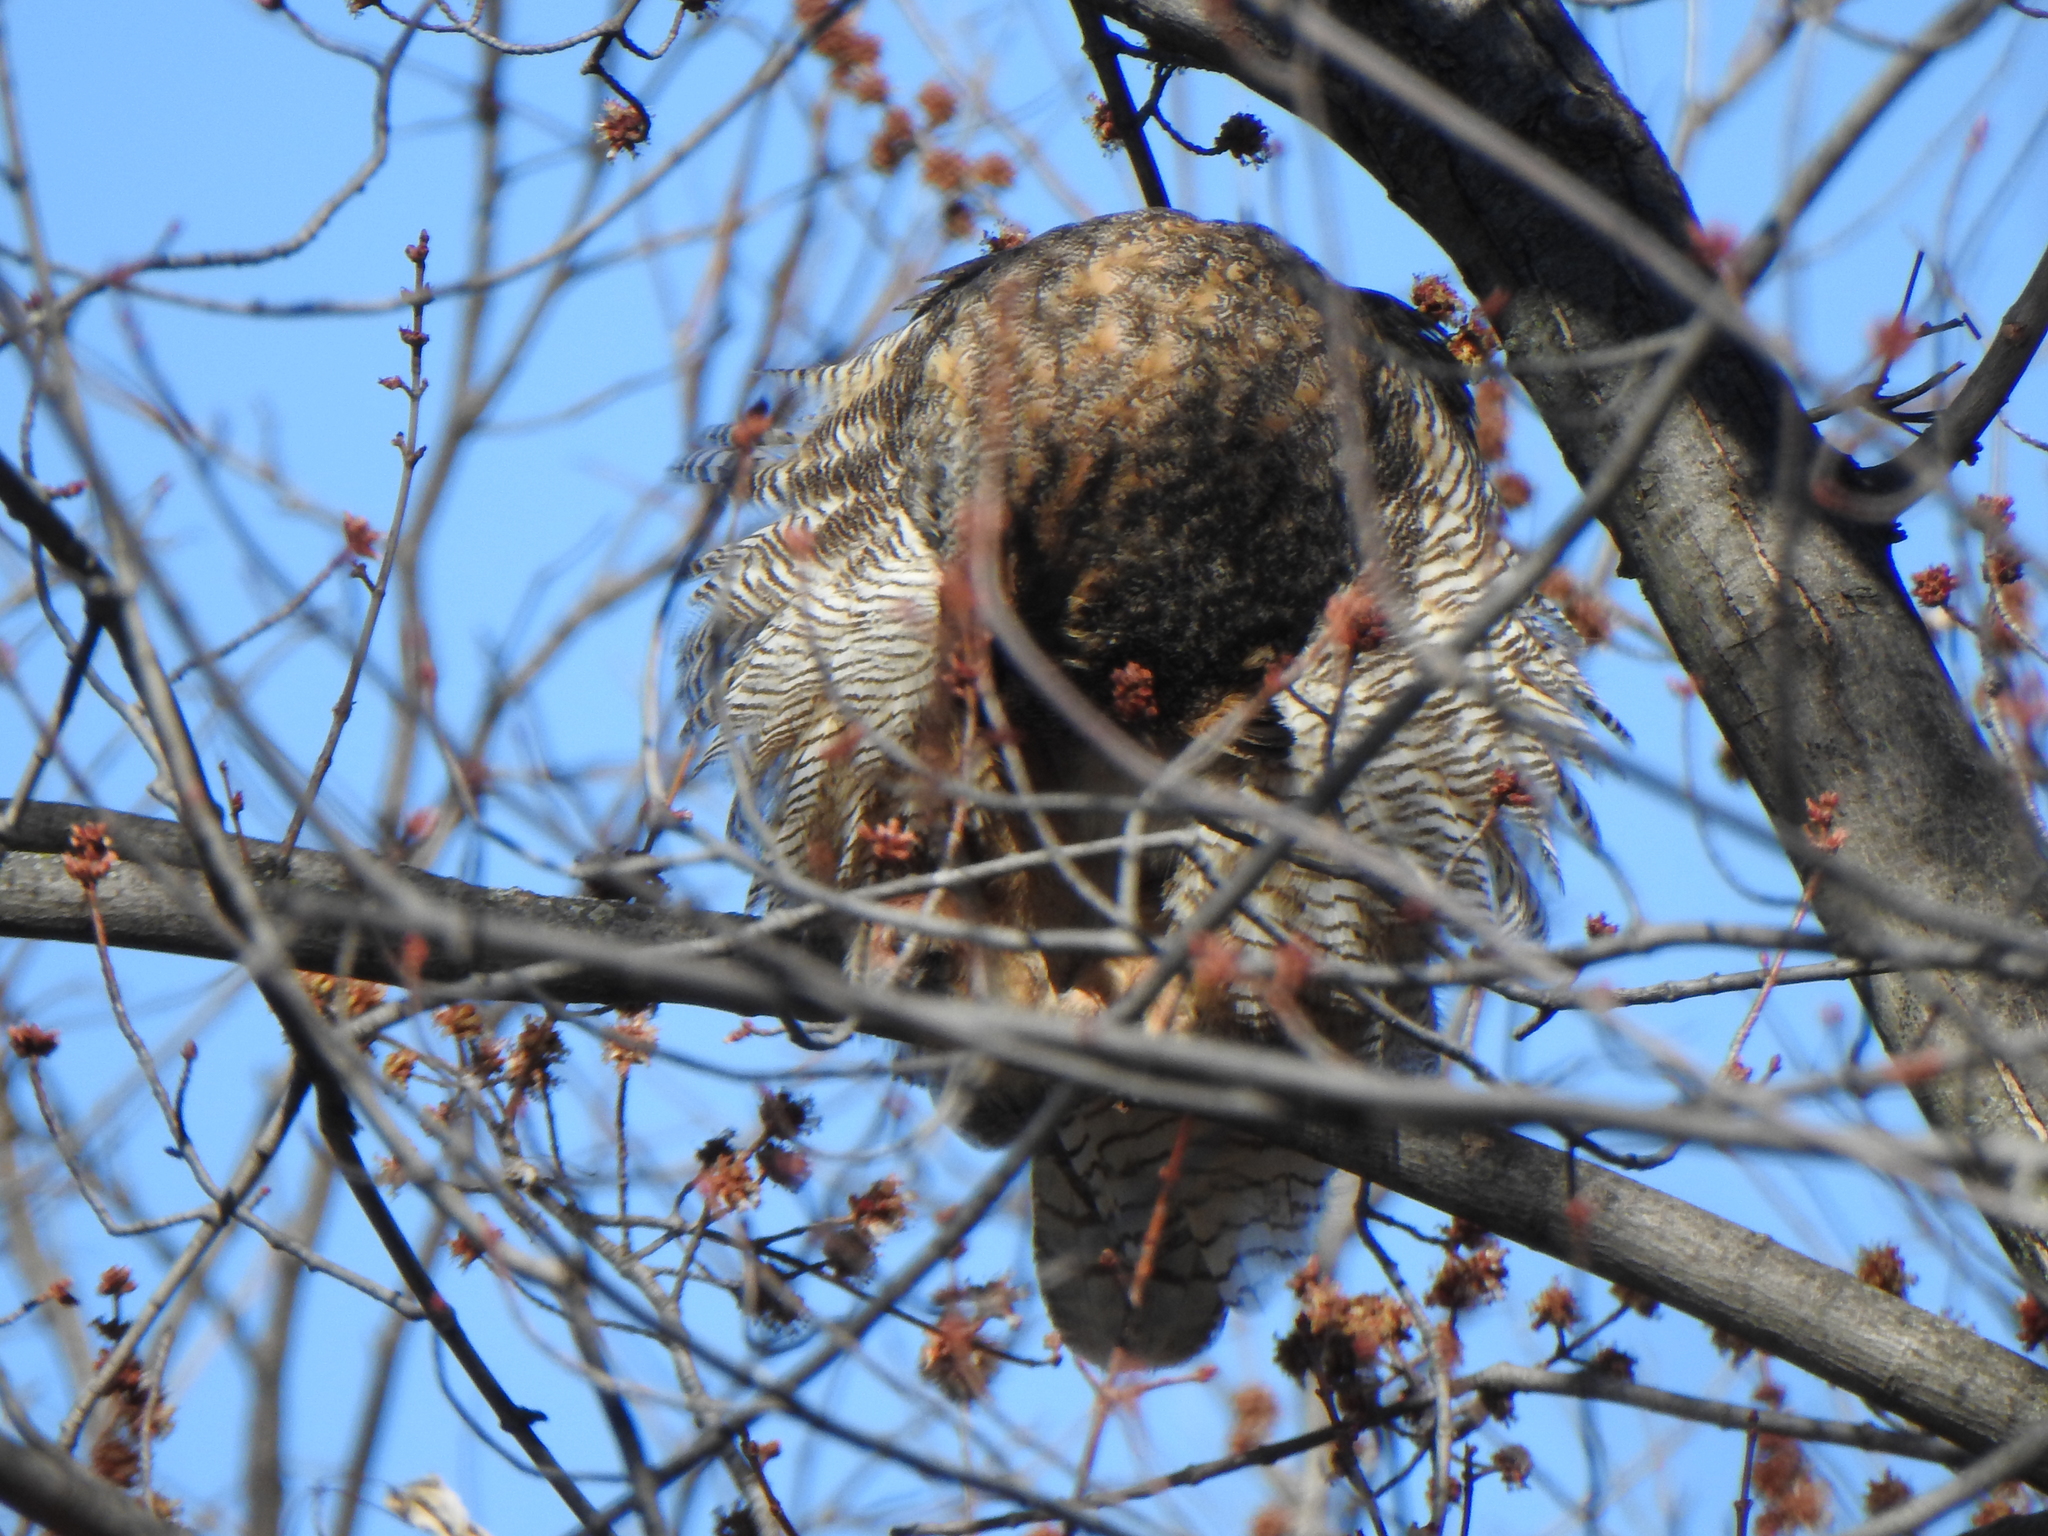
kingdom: Animalia
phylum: Chordata
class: Aves
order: Strigiformes
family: Strigidae
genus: Bubo
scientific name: Bubo virginianus
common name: Great horned owl
